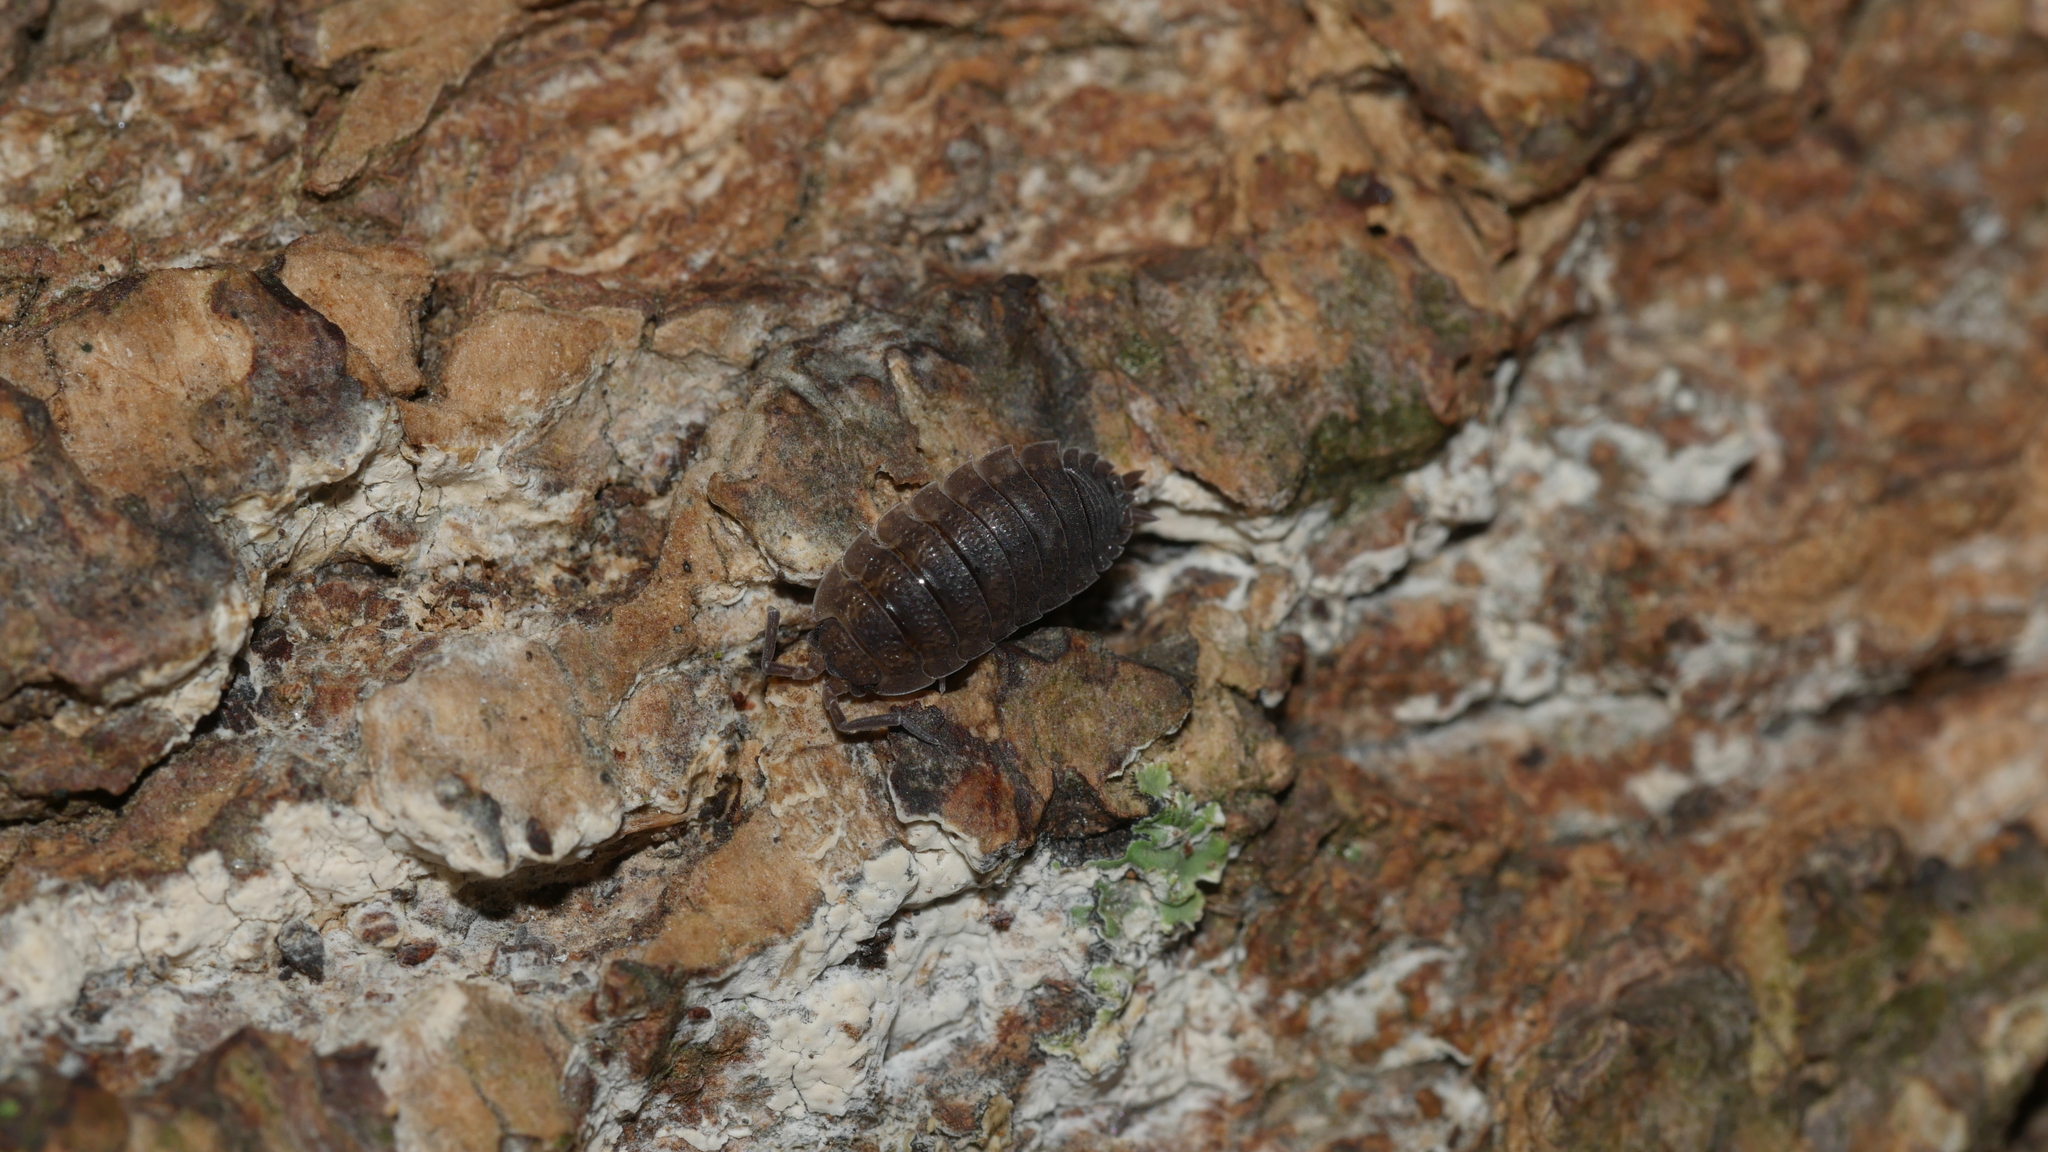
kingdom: Animalia
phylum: Arthropoda
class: Malacostraca
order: Isopoda
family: Porcellionidae
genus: Porcellio
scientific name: Porcellio scaber
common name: Common rough woodlouse
